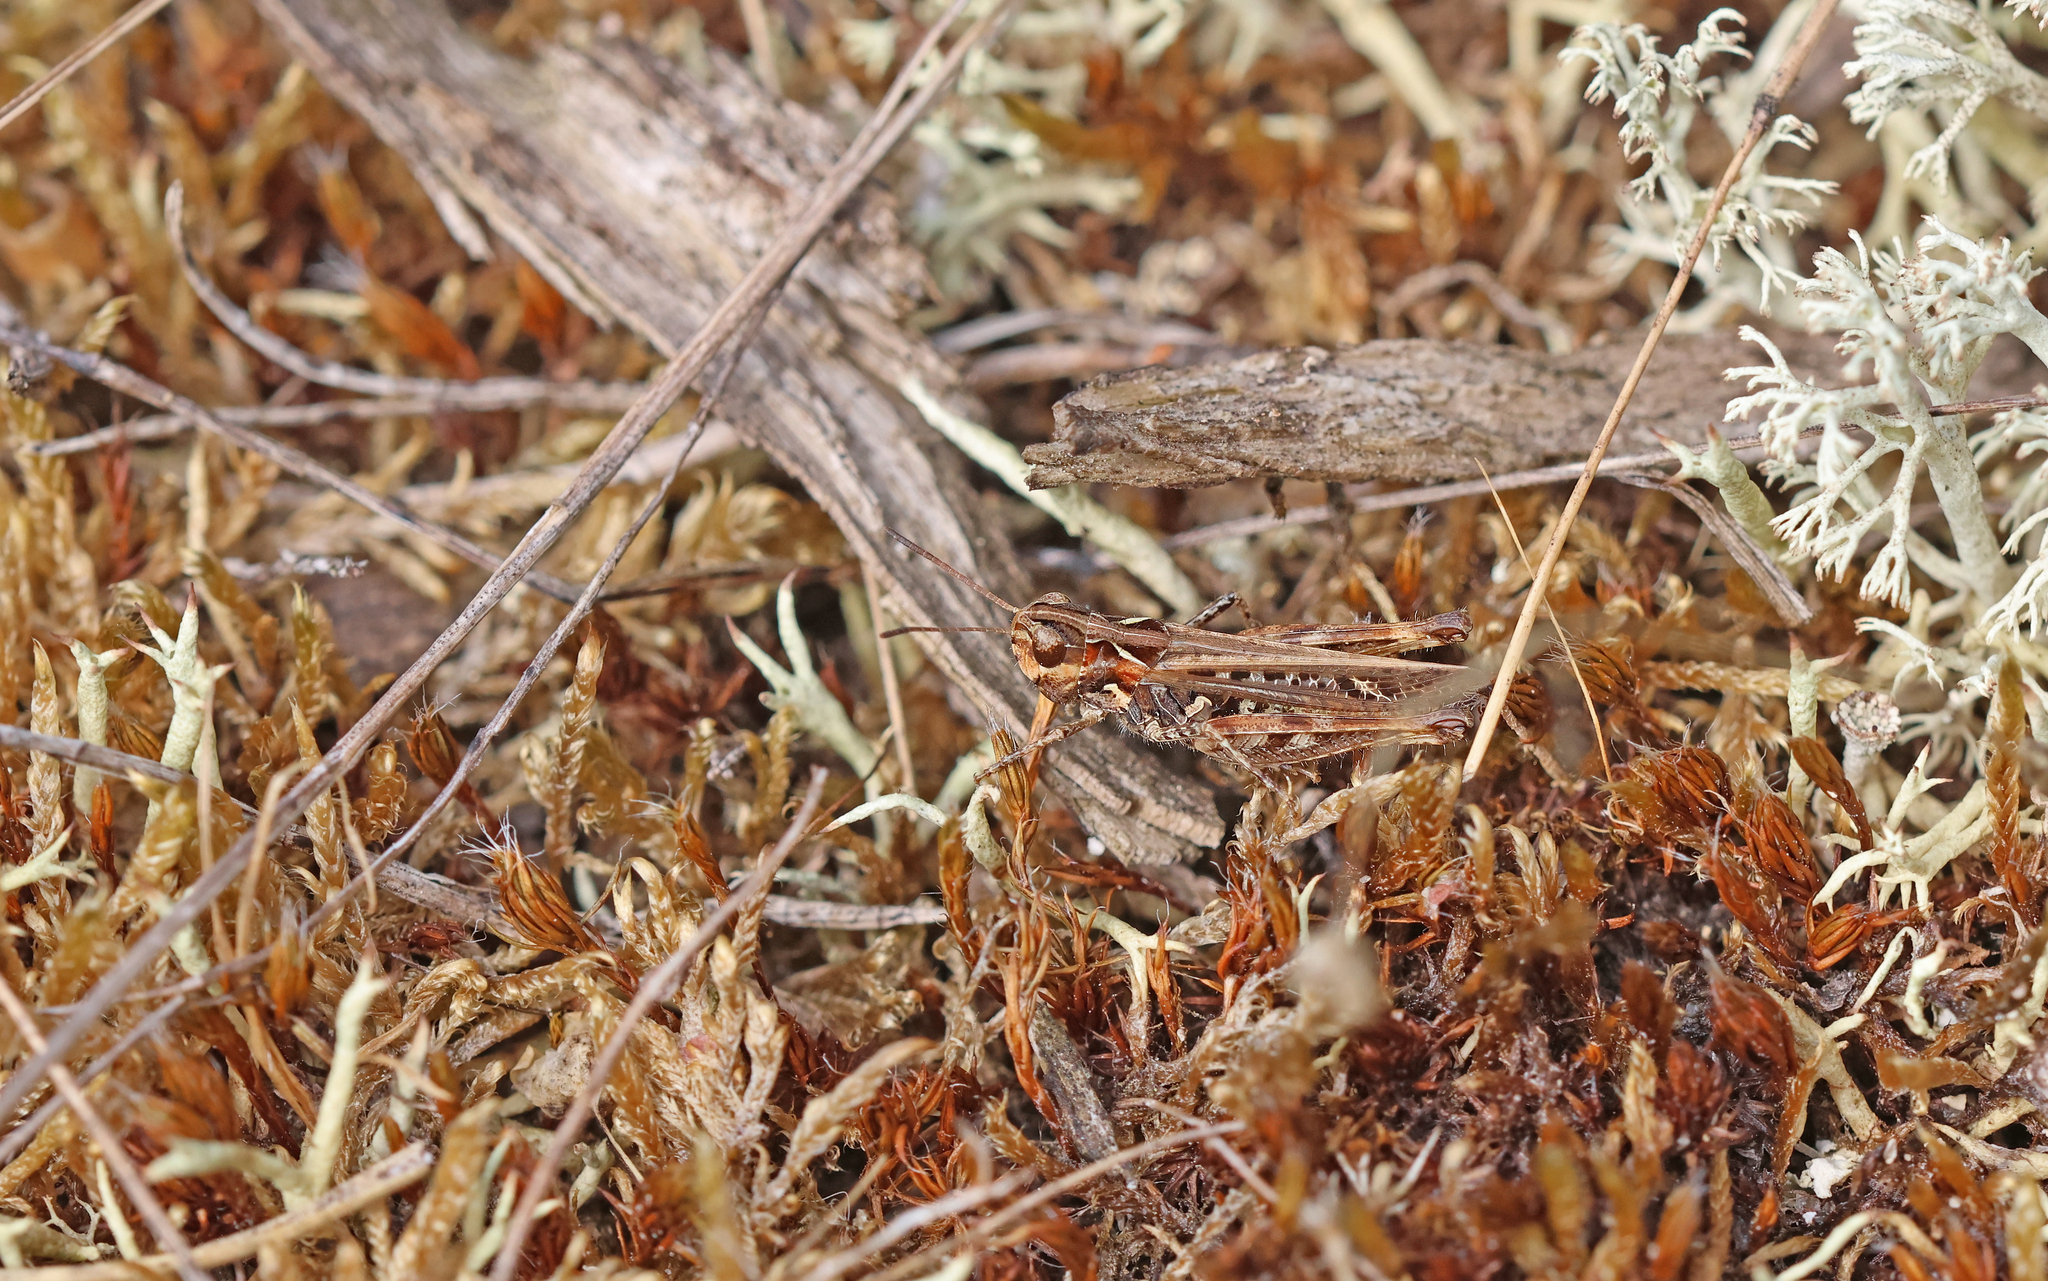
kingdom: Animalia
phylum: Arthropoda
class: Insecta
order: Orthoptera
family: Acrididae
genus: Myrmeleotettix
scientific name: Myrmeleotettix maculatus
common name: Mottled grasshopper
